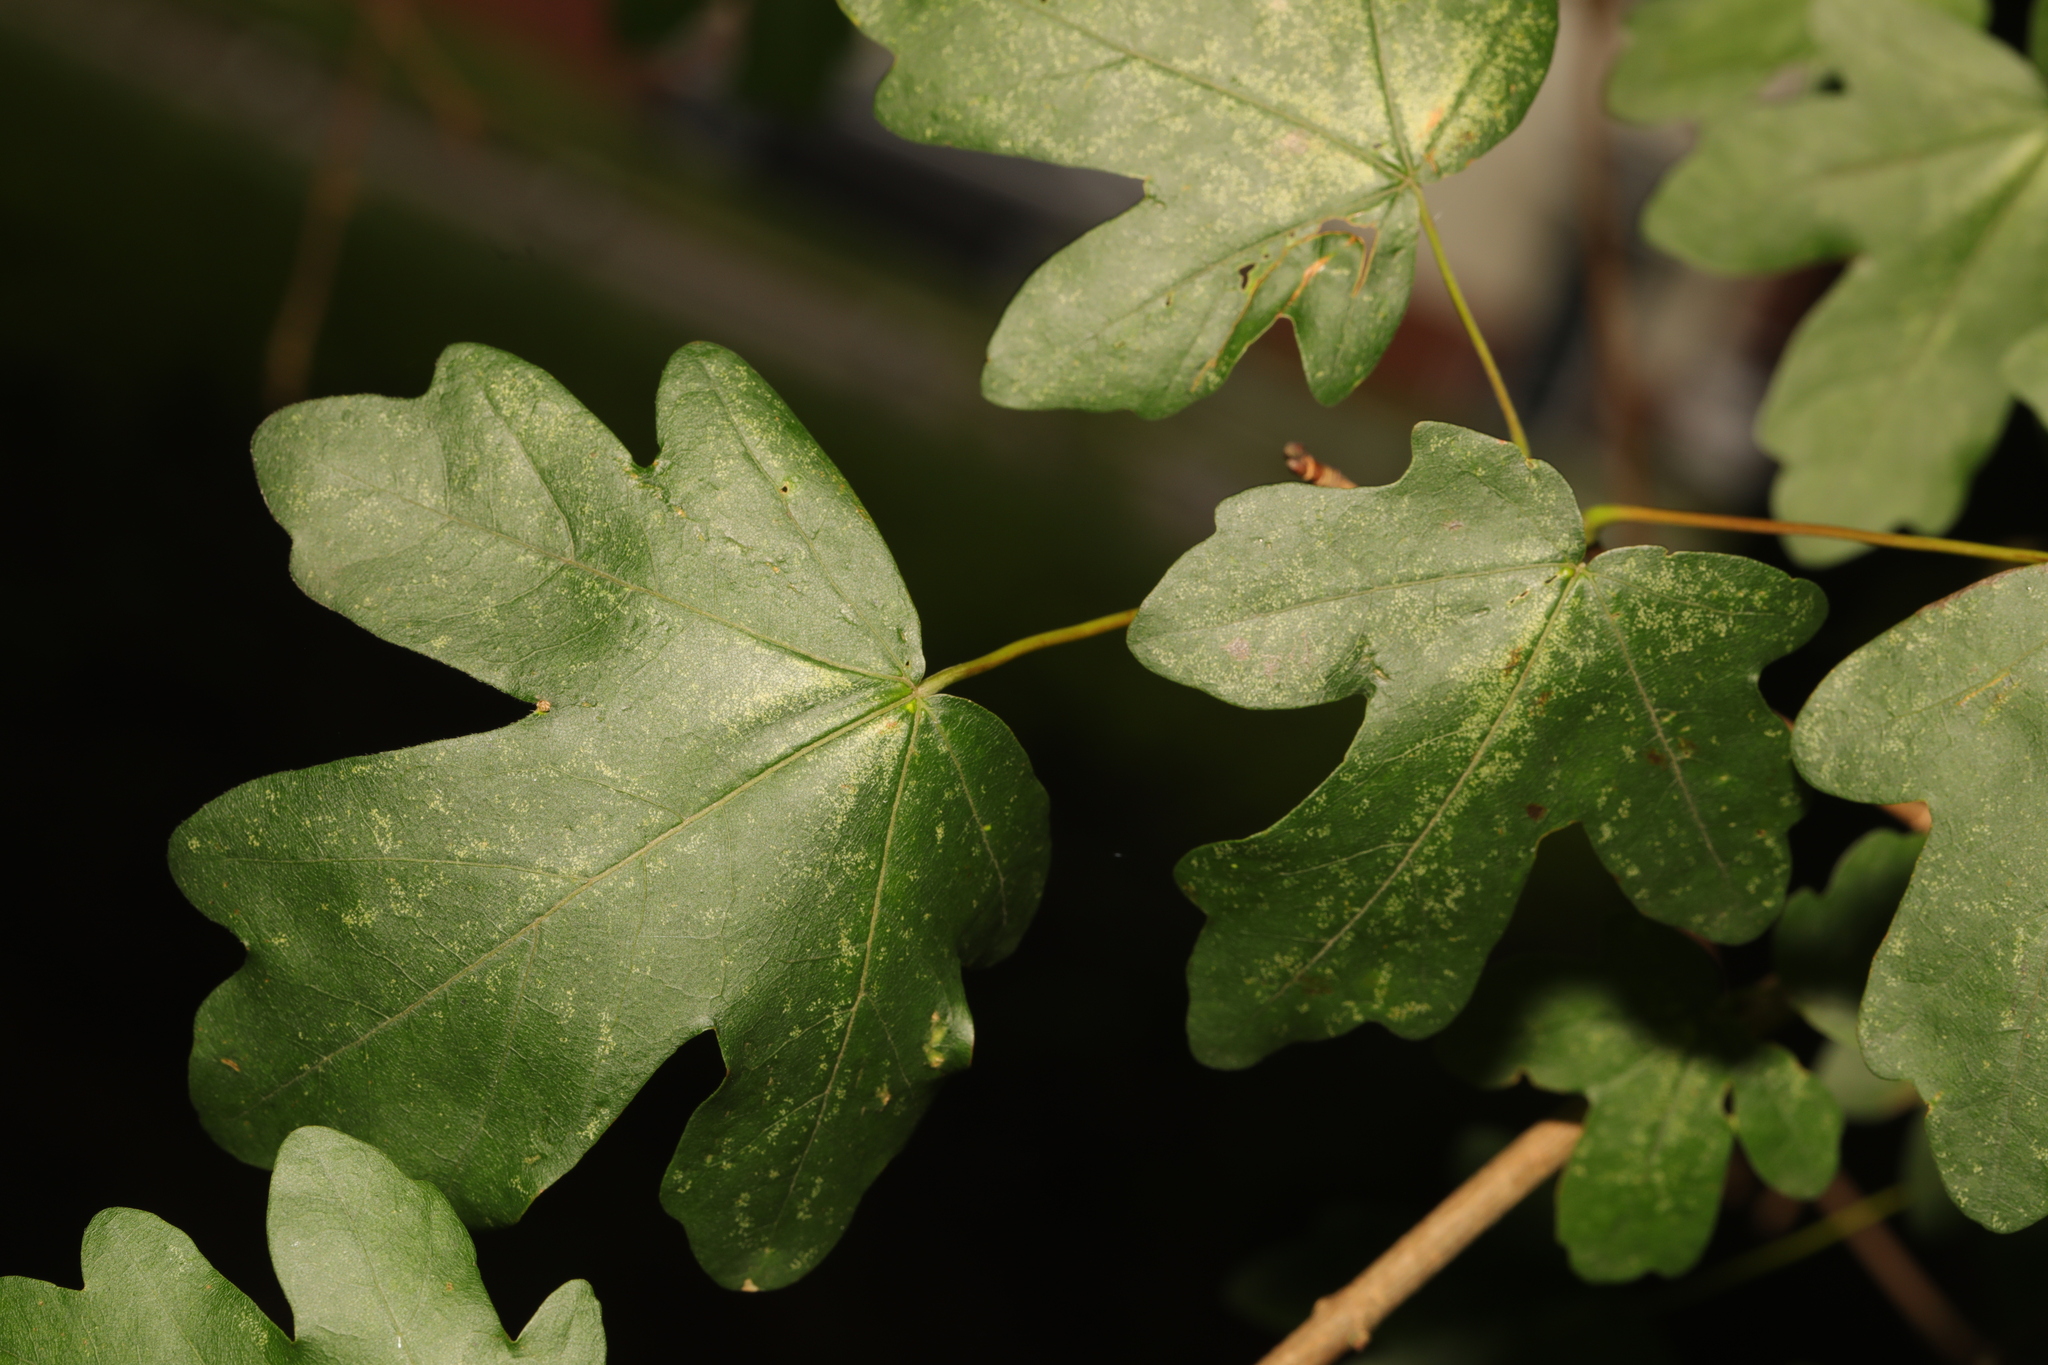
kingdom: Plantae
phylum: Tracheophyta
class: Magnoliopsida
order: Sapindales
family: Sapindaceae
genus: Acer
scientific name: Acer campestre
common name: Field maple
